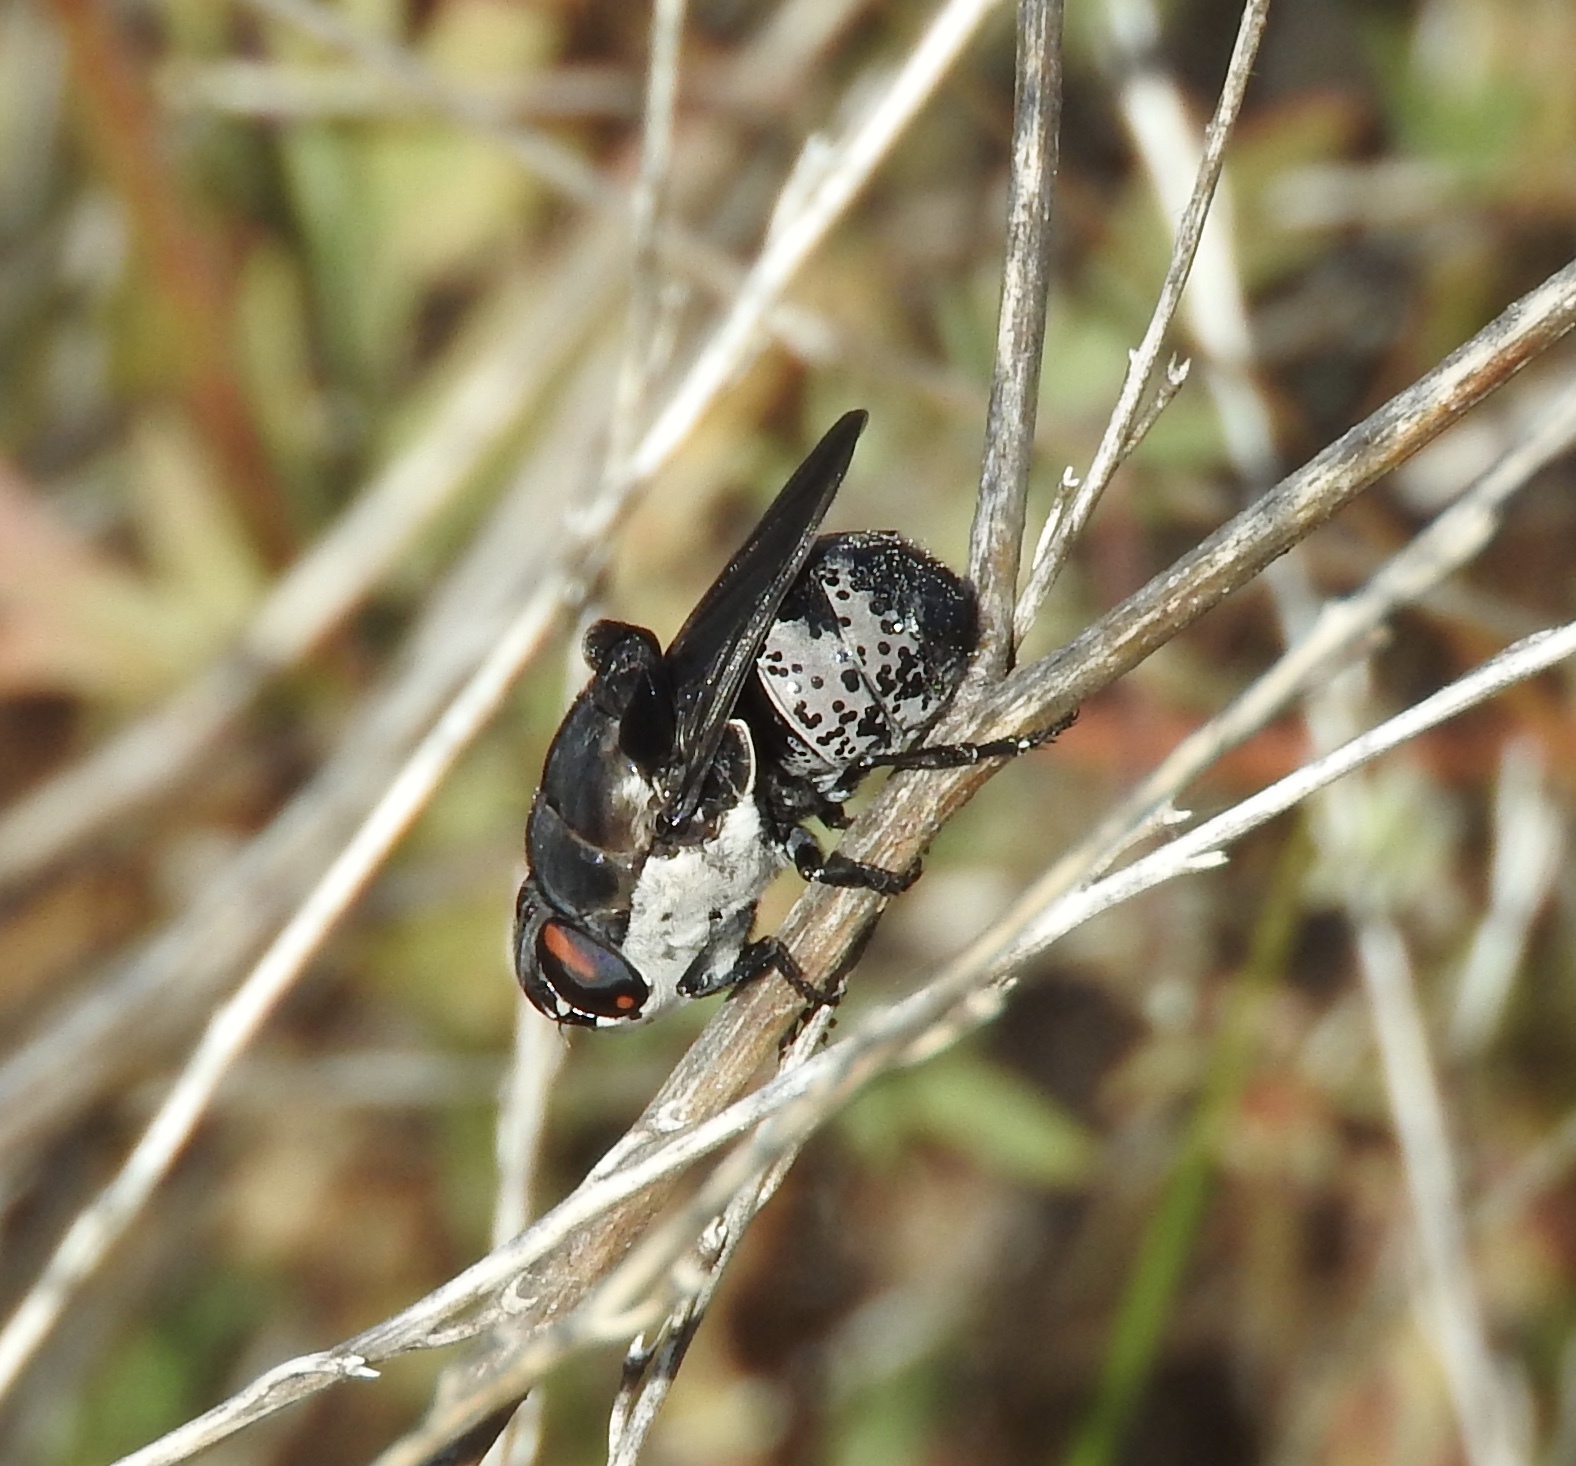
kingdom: Animalia
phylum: Arthropoda
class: Insecta
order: Diptera
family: Oestridae
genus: Cuterebra
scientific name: Cuterebra lepusculi
